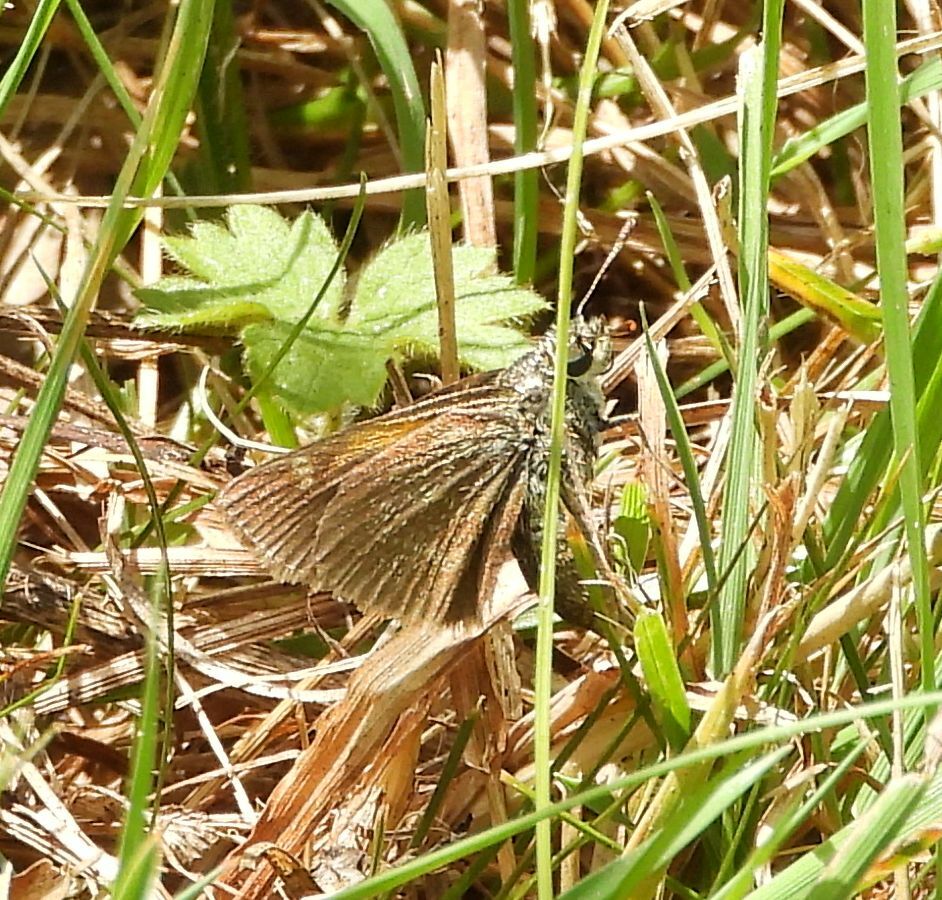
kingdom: Animalia
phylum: Arthropoda
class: Insecta
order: Lepidoptera
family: Hesperiidae
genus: Polites
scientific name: Polites themistocles
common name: Tawny-edged skipper
